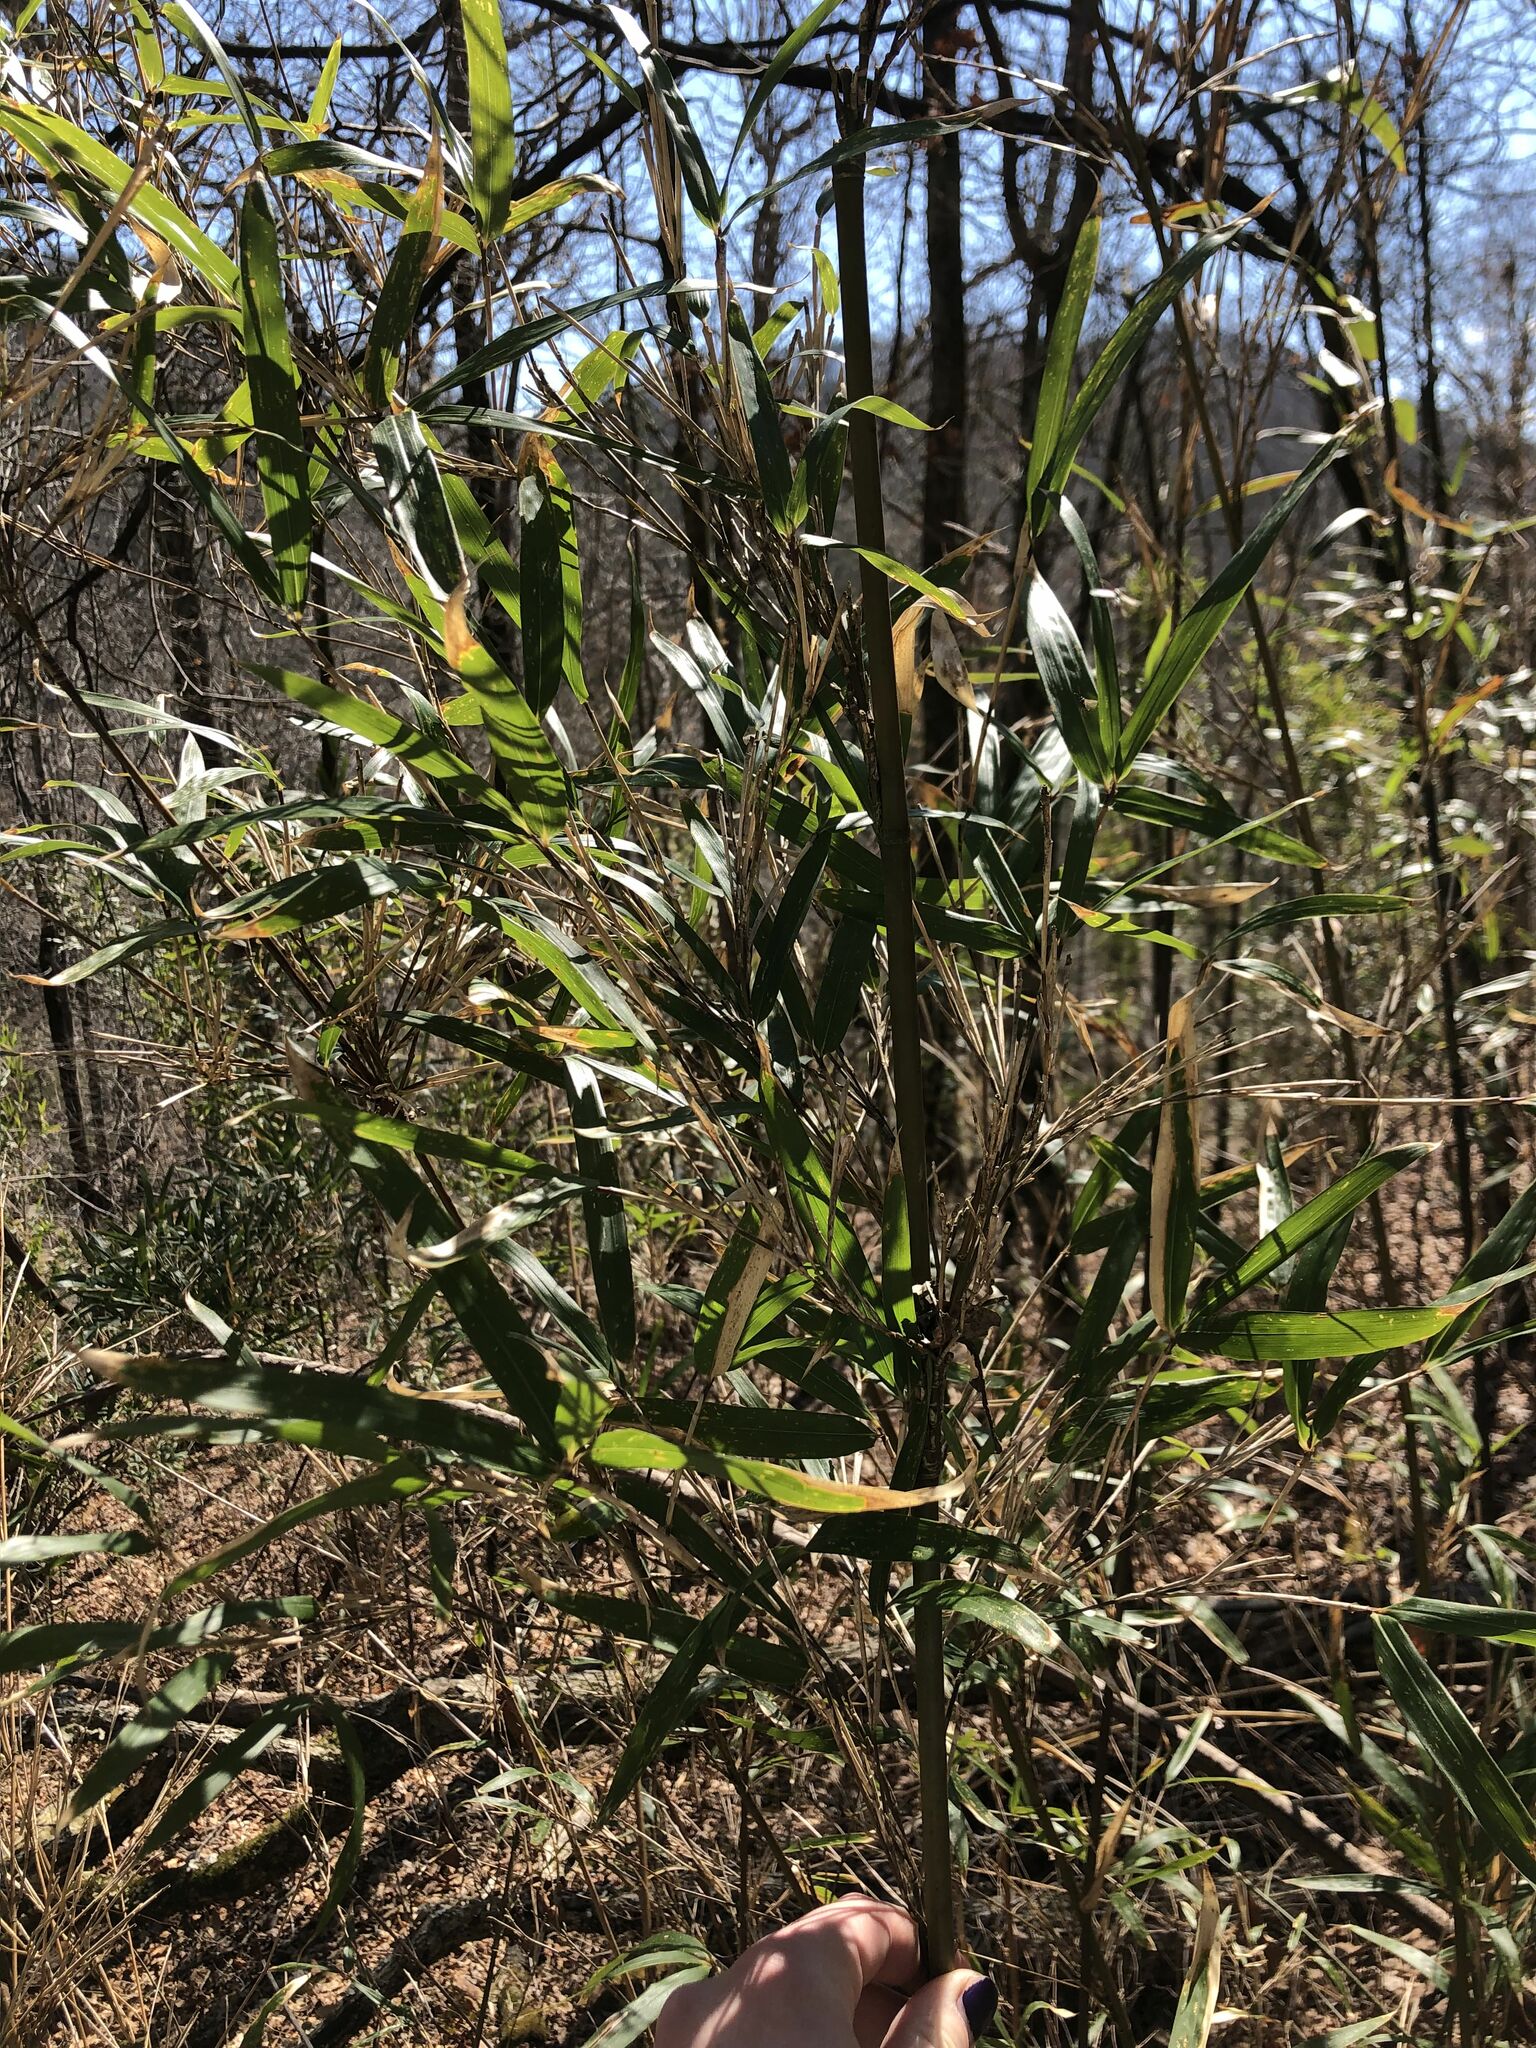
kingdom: Plantae
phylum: Tracheophyta
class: Liliopsida
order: Poales
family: Poaceae
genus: Arundinaria
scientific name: Arundinaria gigantea
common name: Giant cane
